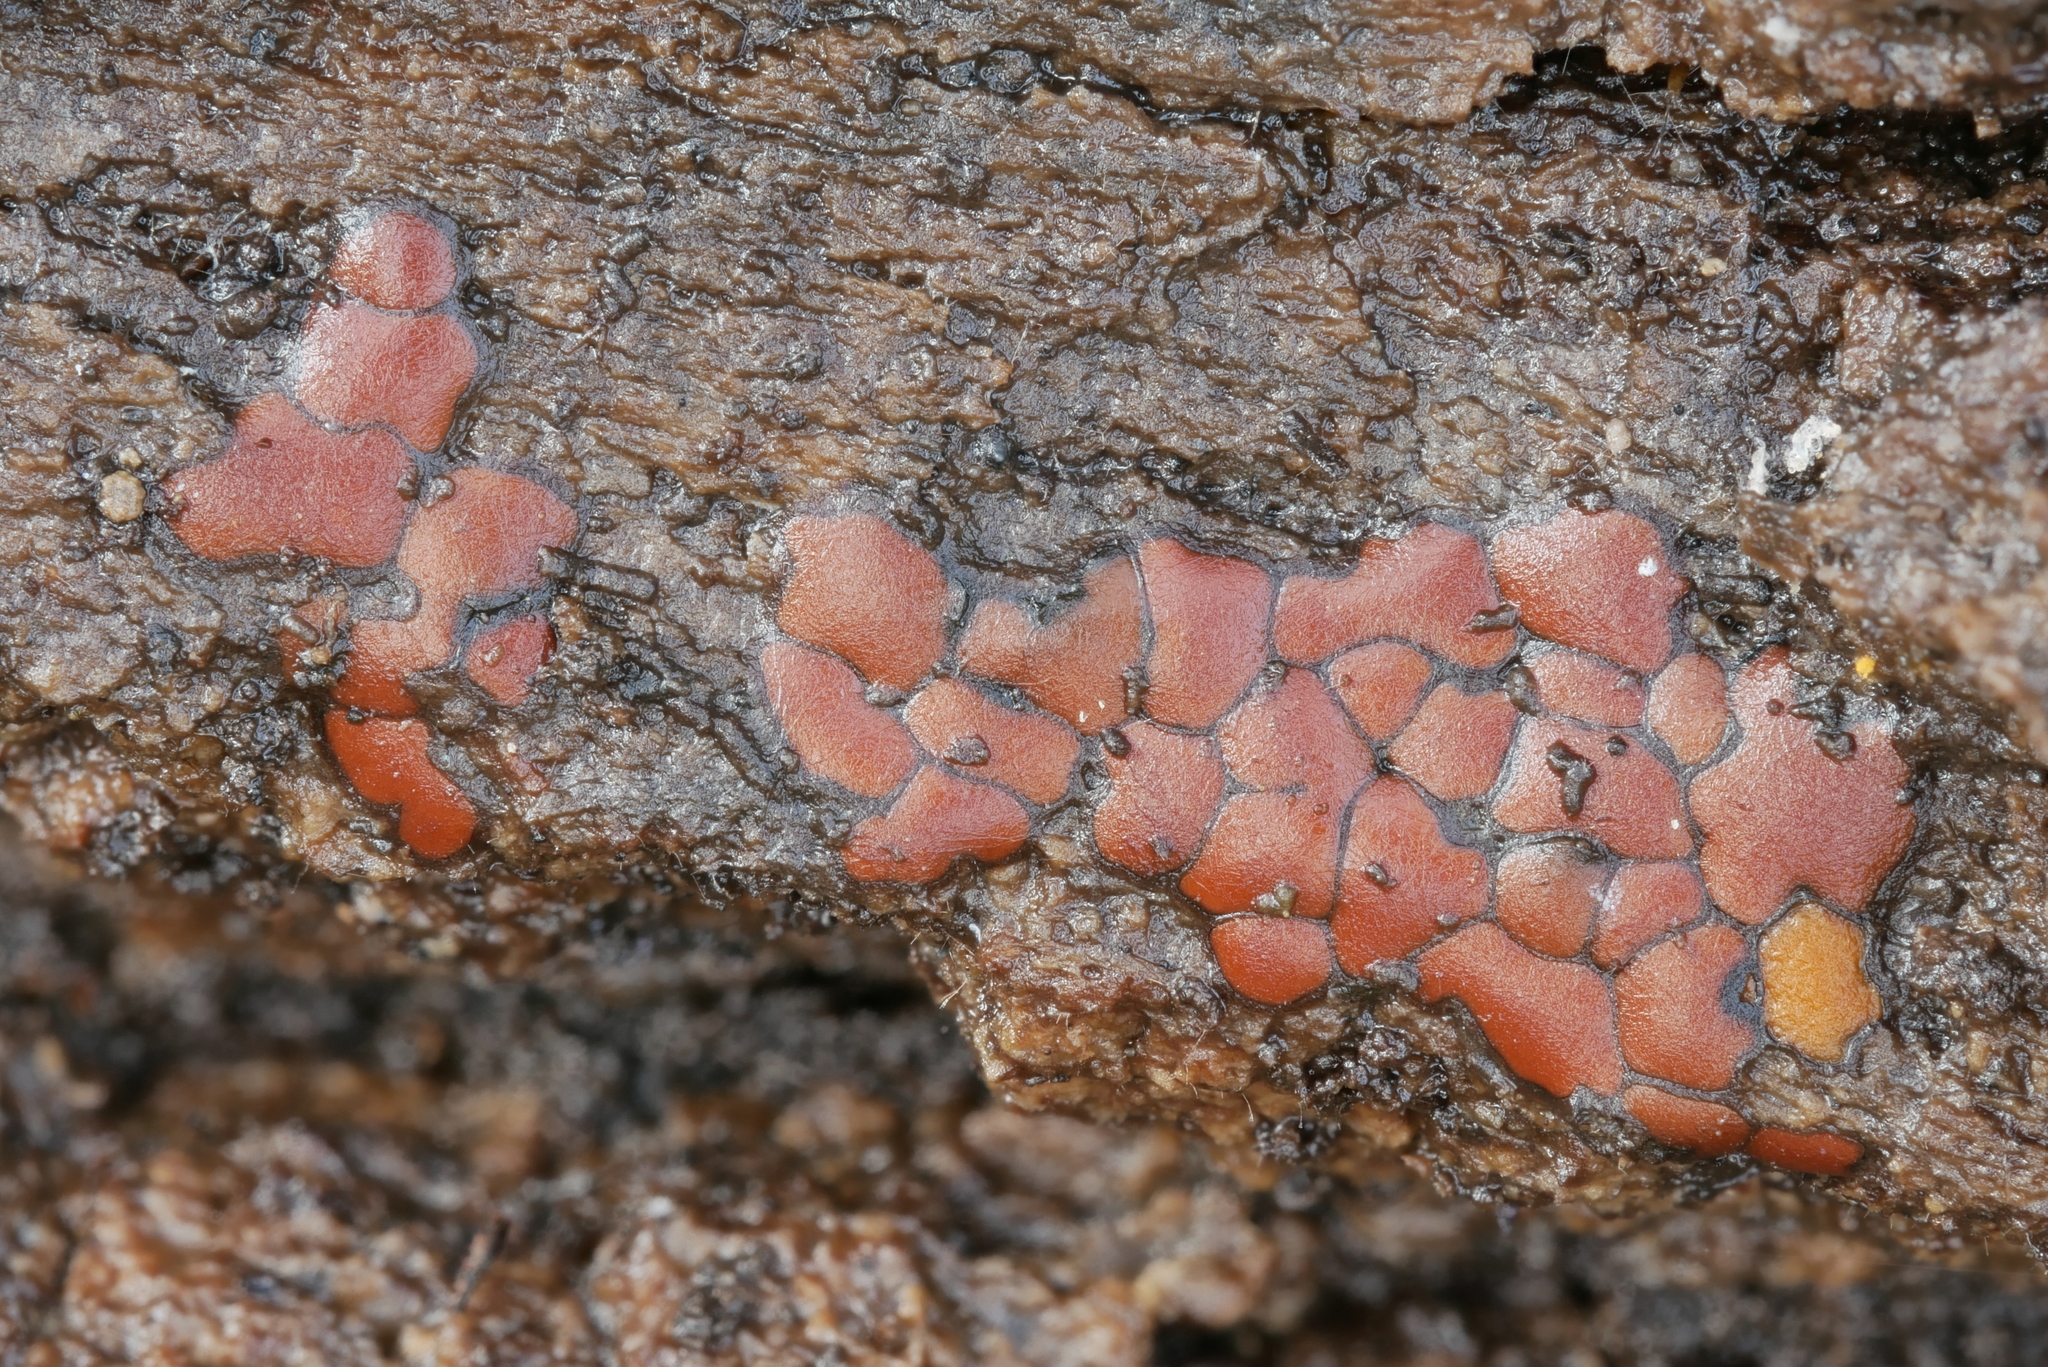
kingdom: Protozoa
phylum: Mycetozoa
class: Myxomycetes
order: Trichiales
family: Trichiaceae
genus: Perichaena
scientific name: Perichaena depressa
